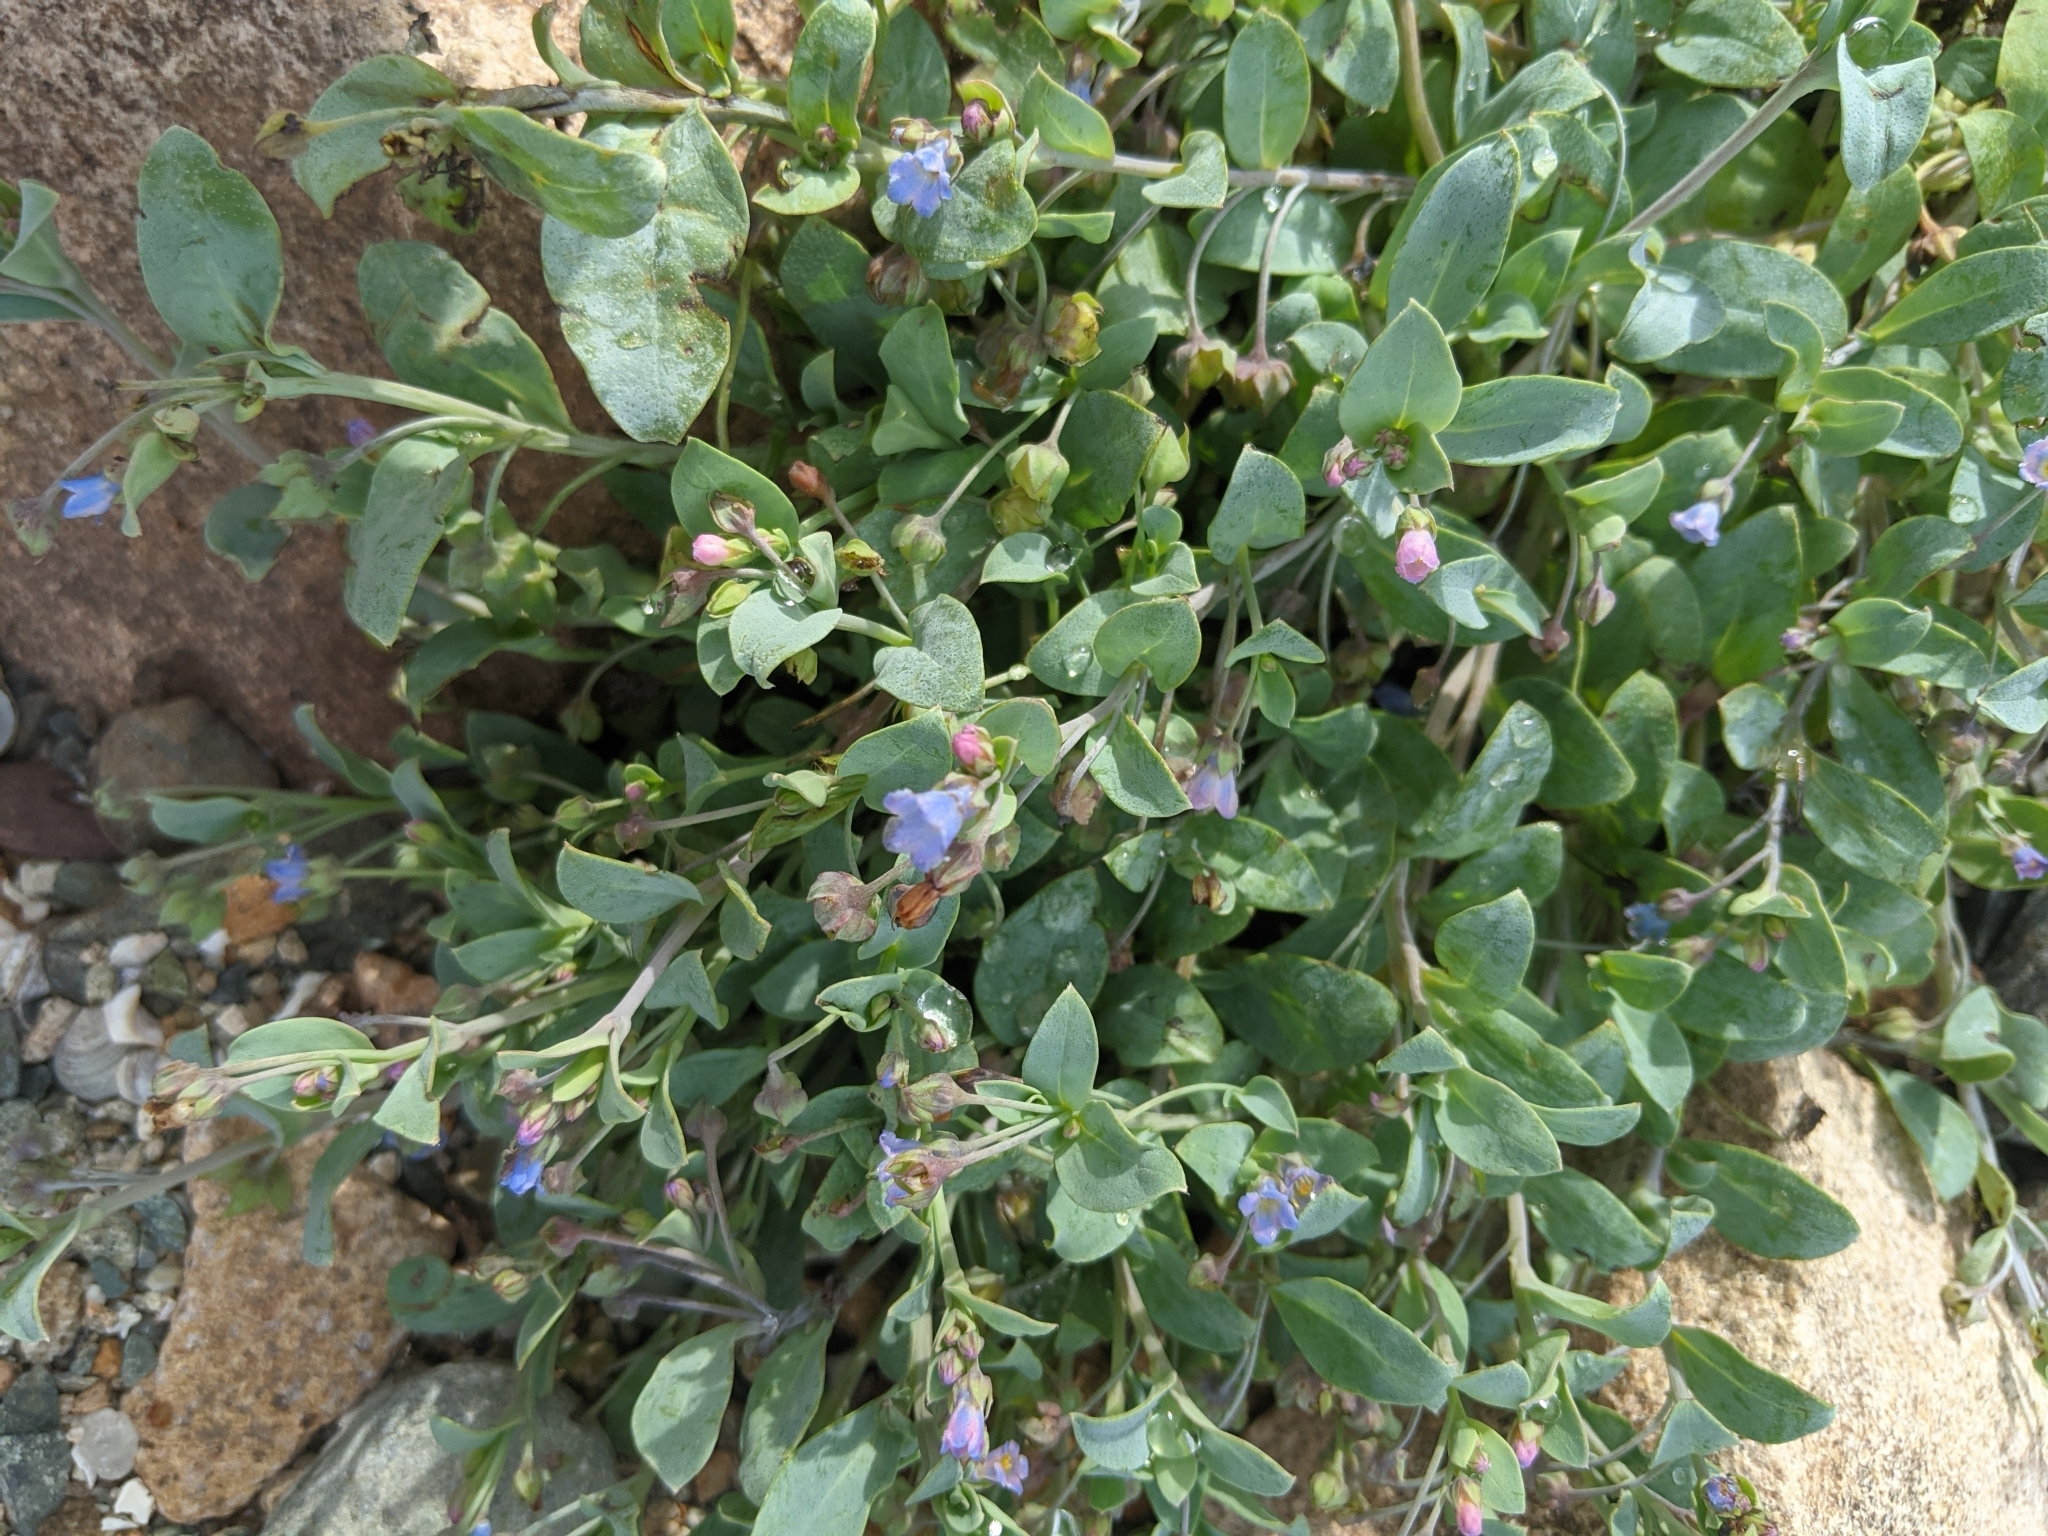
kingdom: Plantae
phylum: Tracheophyta
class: Magnoliopsida
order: Boraginales
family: Boraginaceae
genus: Mertensia
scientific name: Mertensia maritima
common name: Oysterplant
